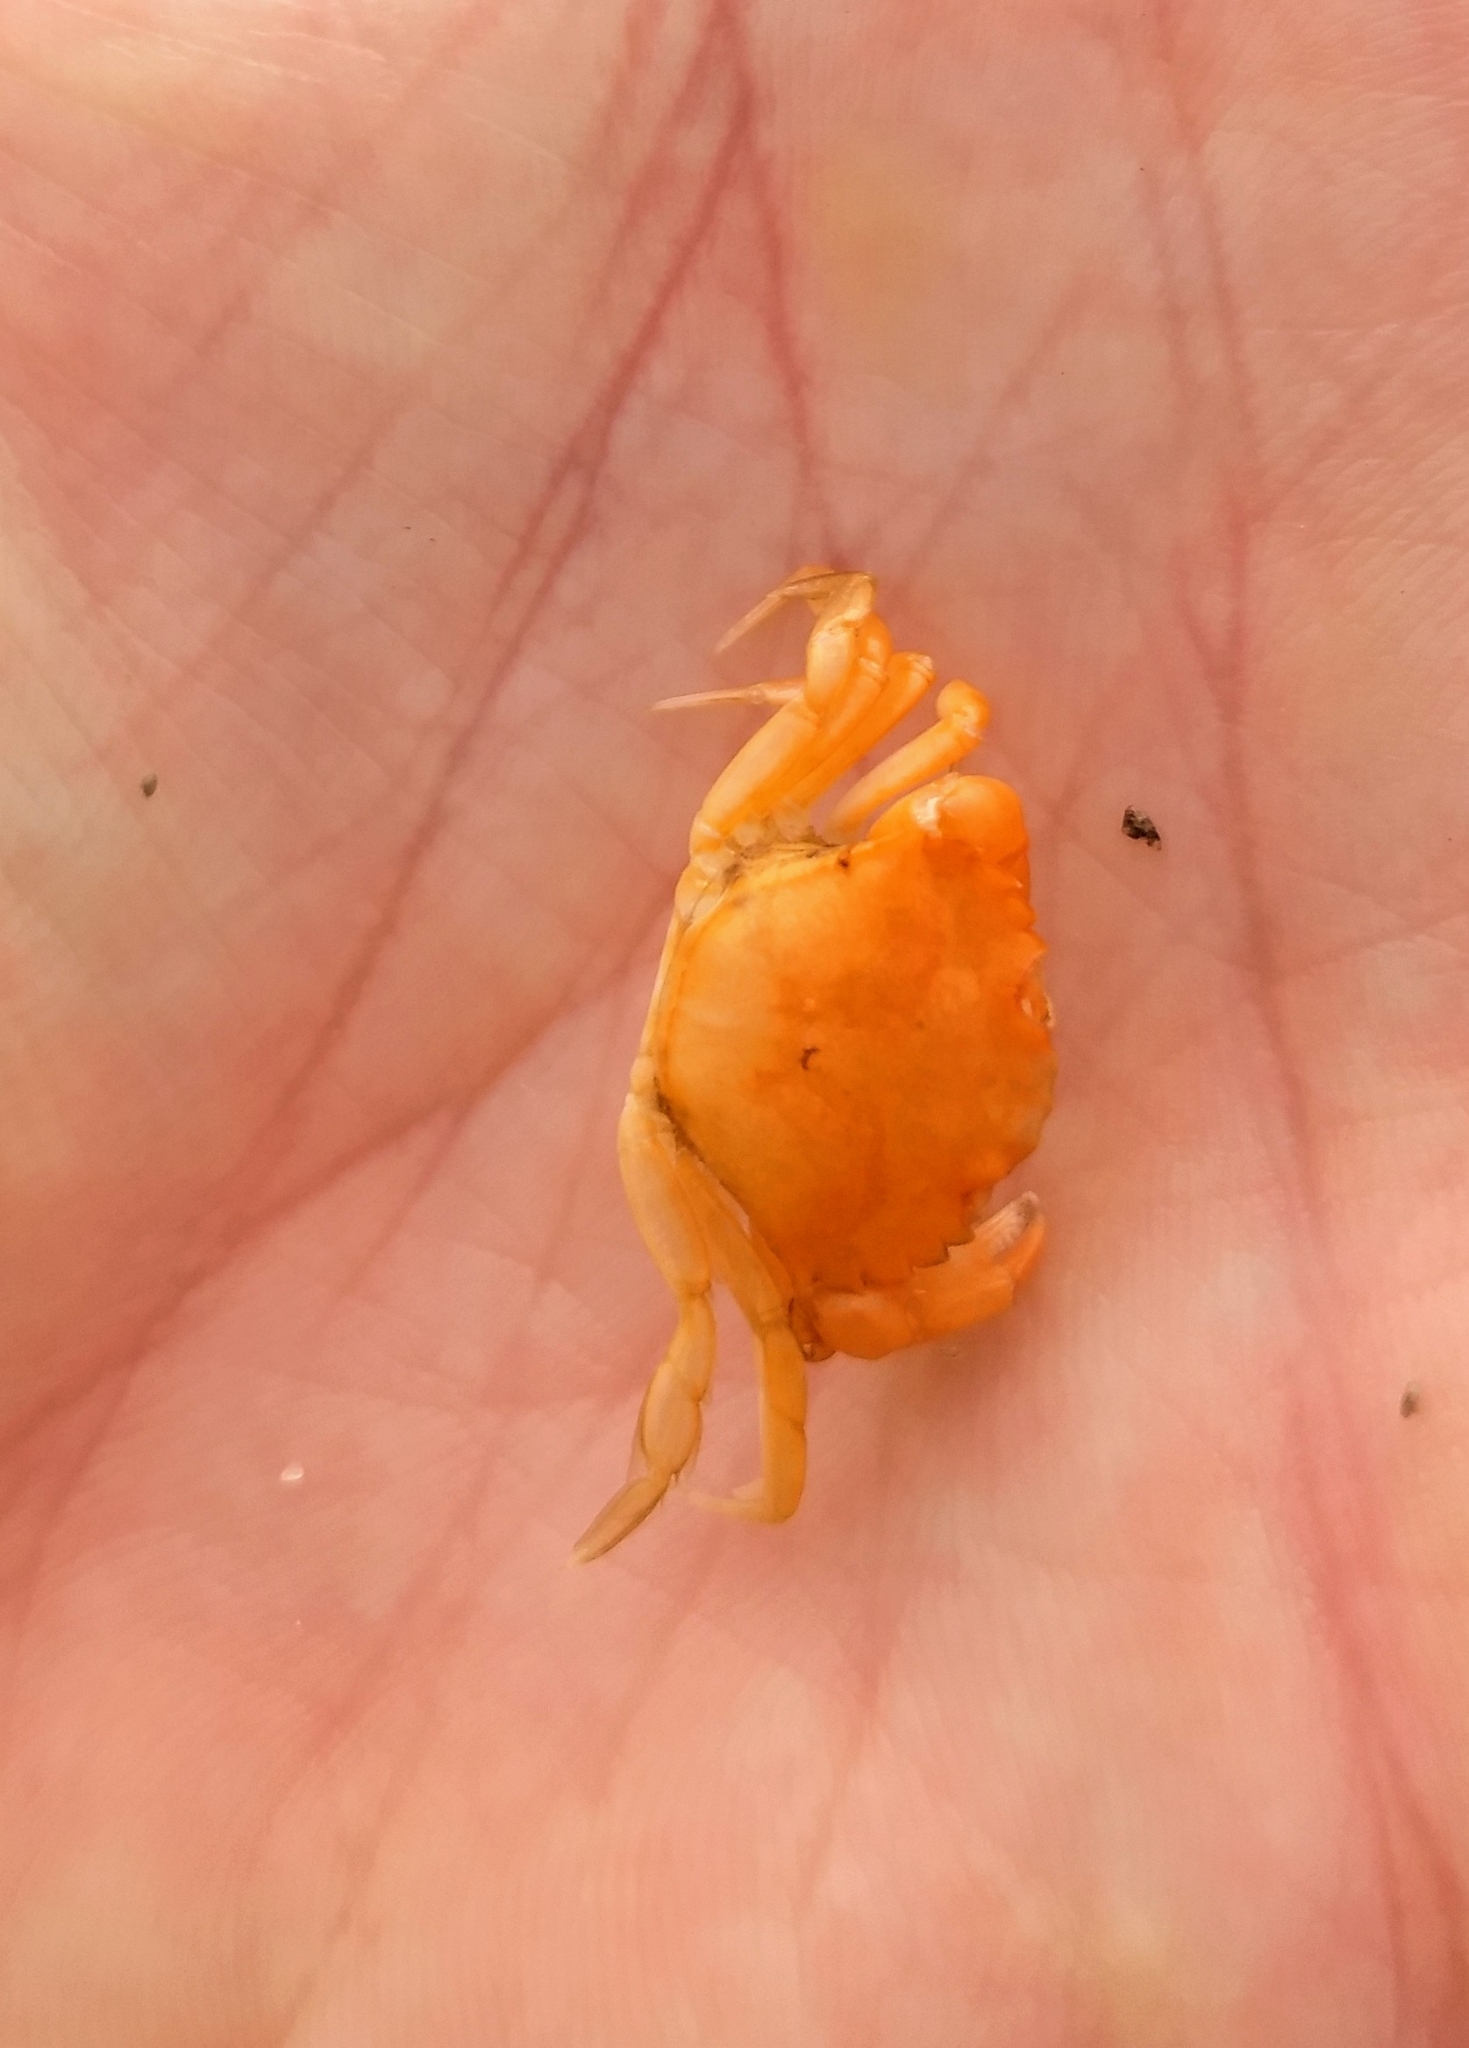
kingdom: Animalia
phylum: Arthropoda
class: Malacostraca
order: Decapoda
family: Carcinidae
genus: Carcinus
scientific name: Carcinus maenas
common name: European green crab
